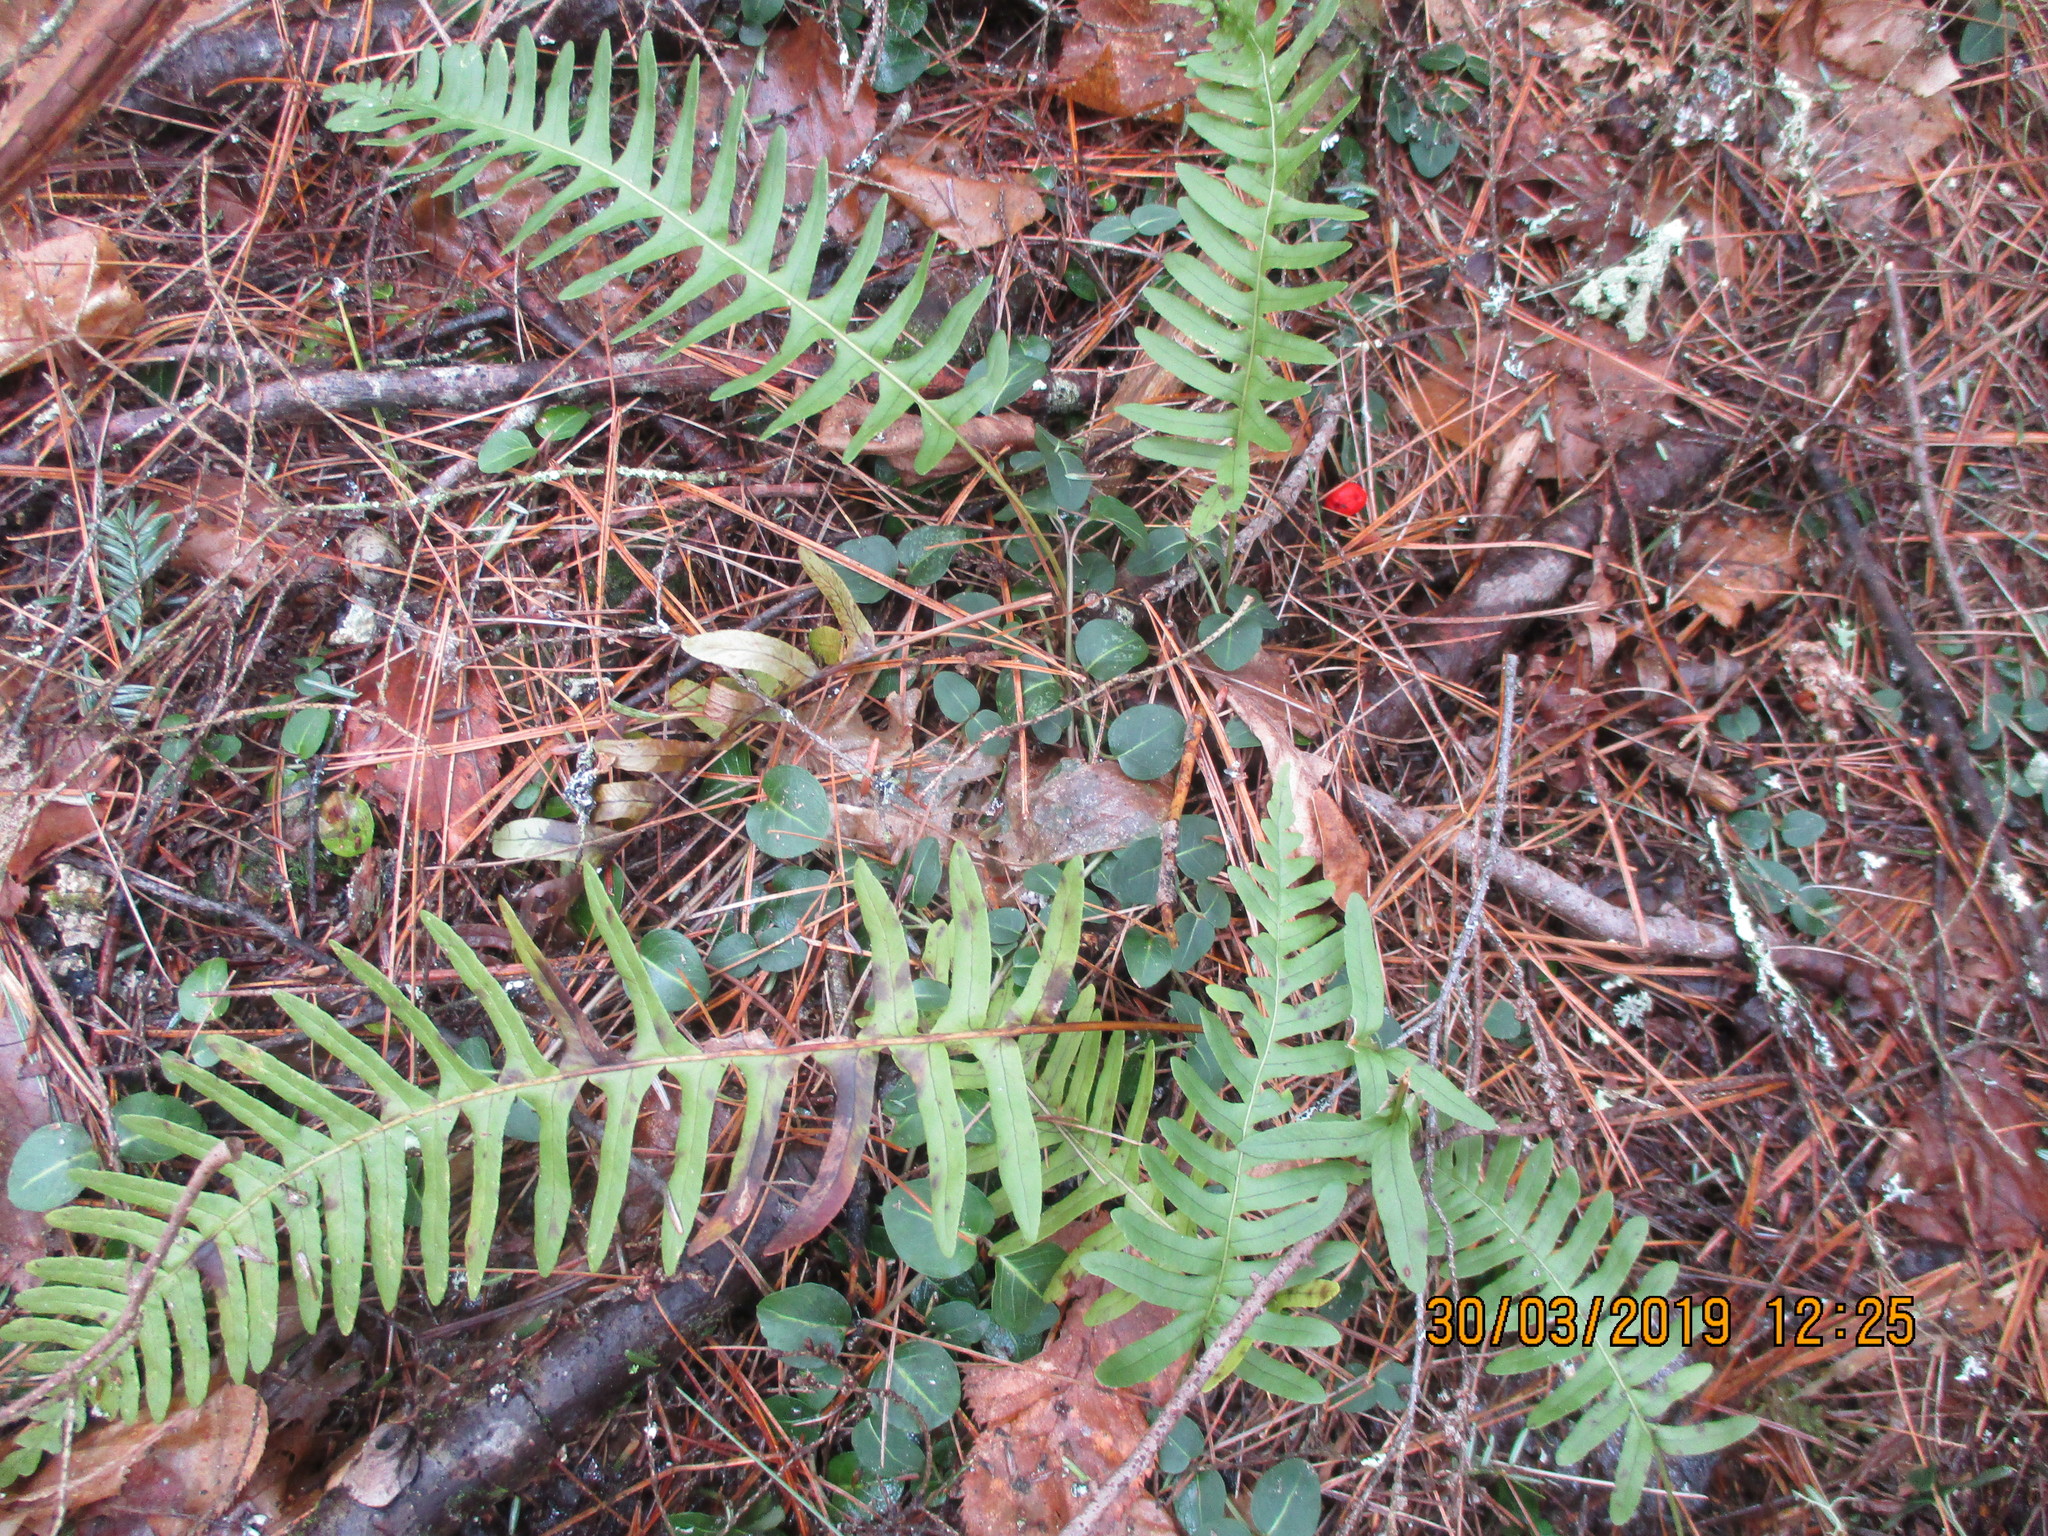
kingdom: Plantae
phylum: Tracheophyta
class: Polypodiopsida
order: Polypodiales
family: Polypodiaceae
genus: Polypodium
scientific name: Polypodium
